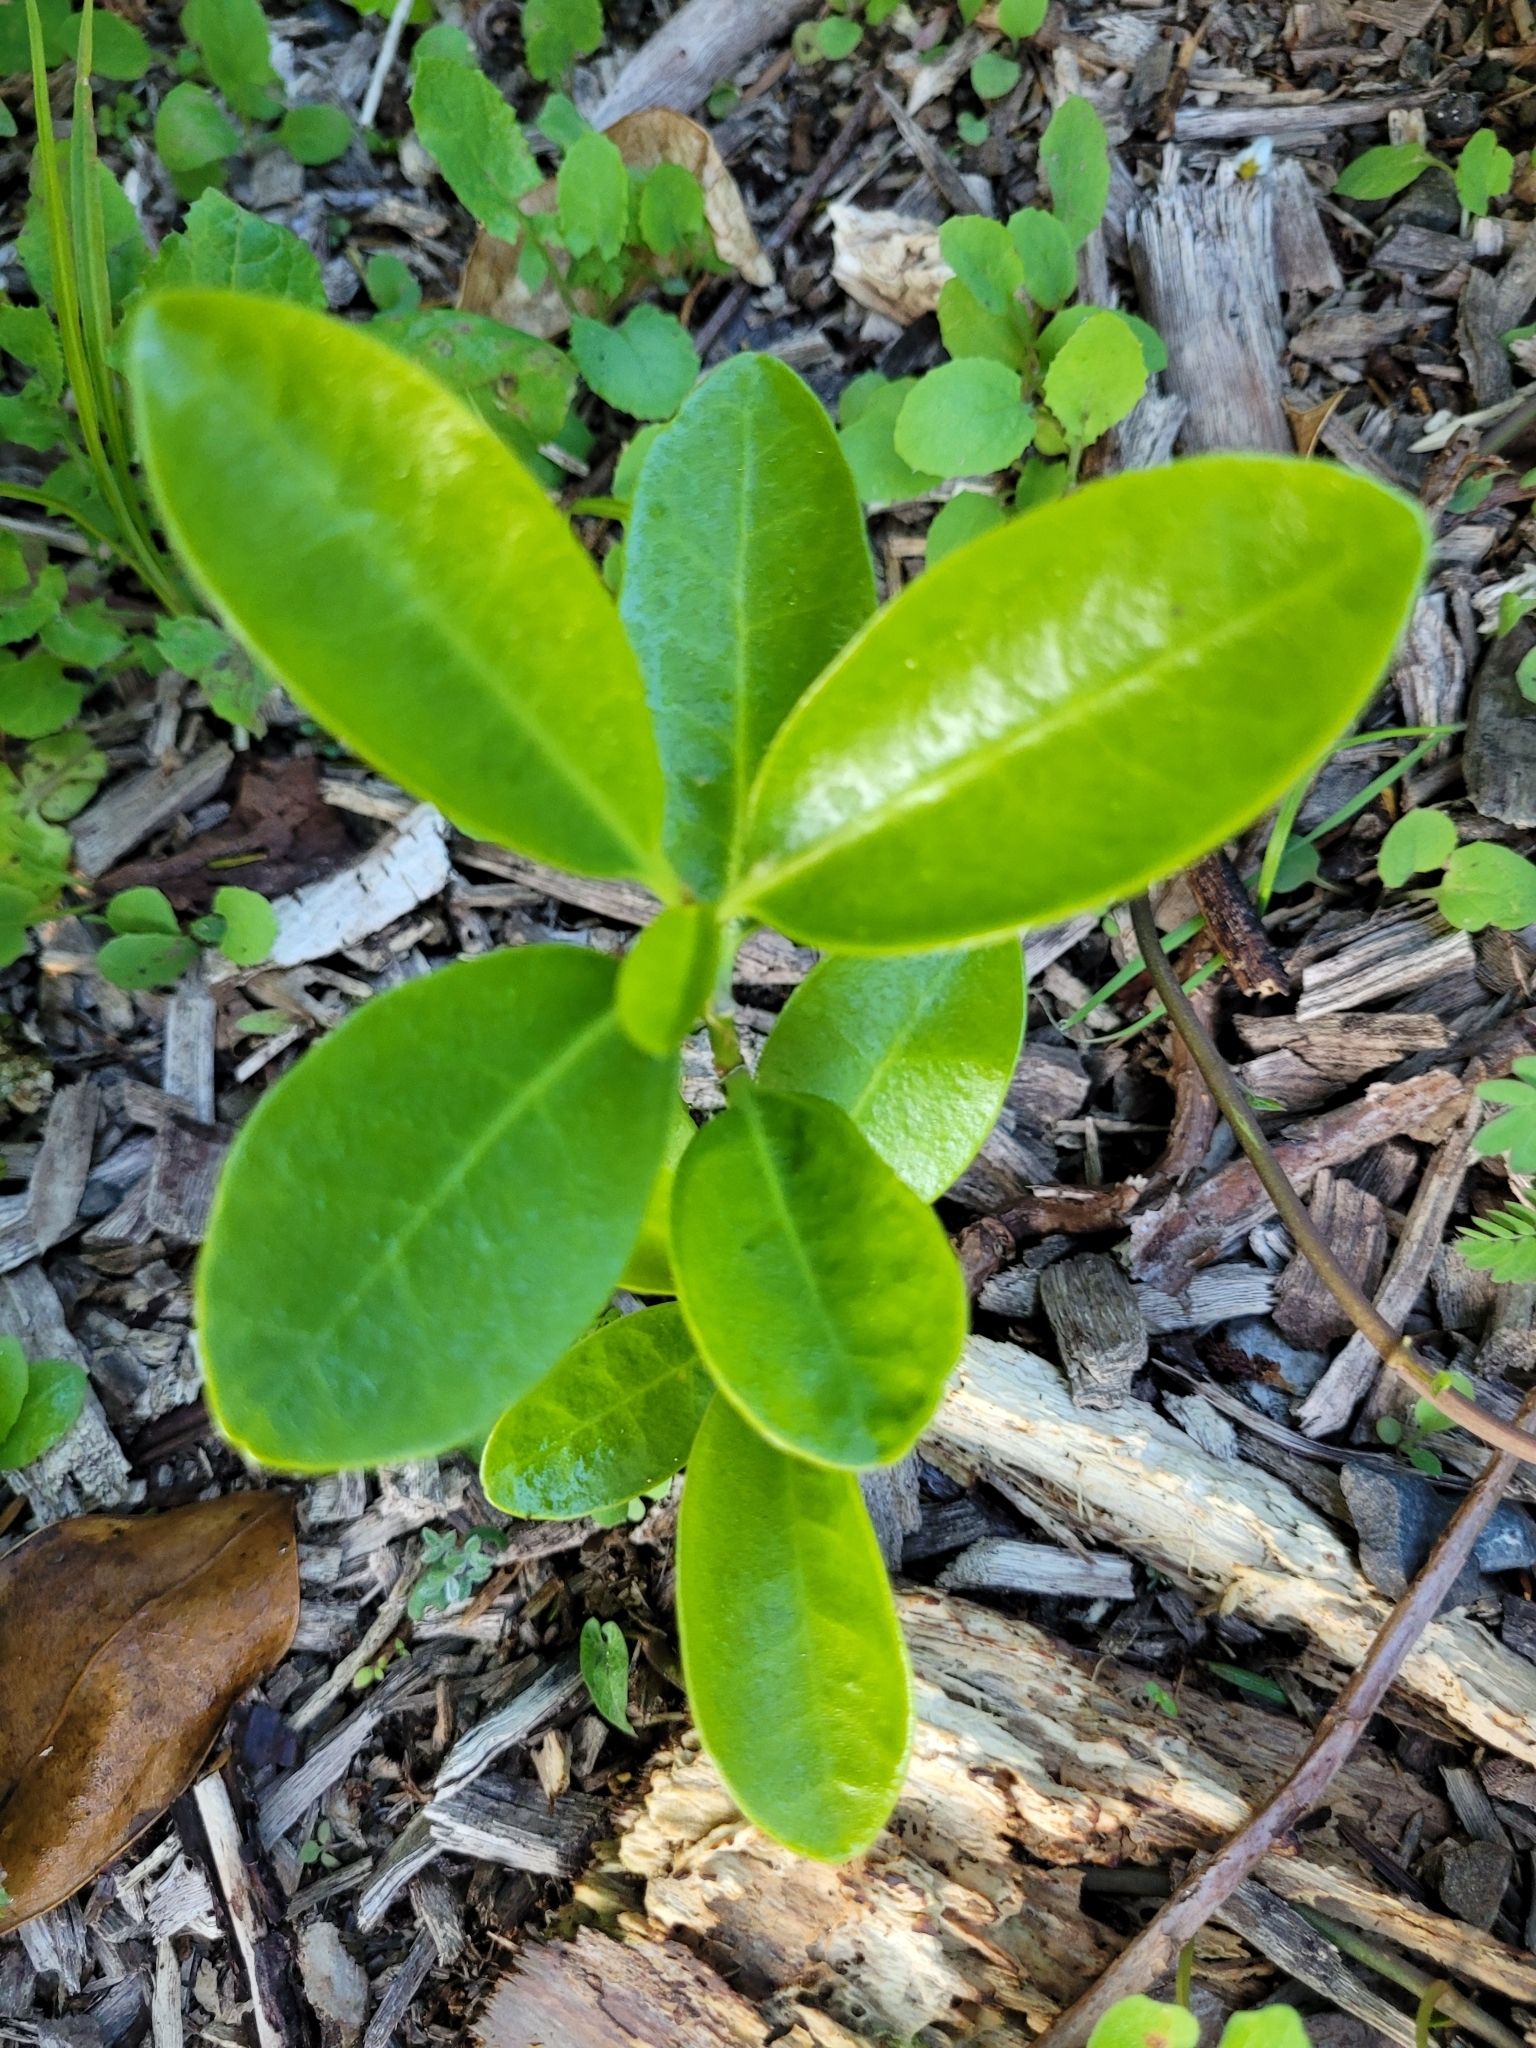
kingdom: Plantae
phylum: Tracheophyta
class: Magnoliopsida
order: Cucurbitales
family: Corynocarpaceae
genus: Corynocarpus
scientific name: Corynocarpus laevigatus
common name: New zealand laurel
